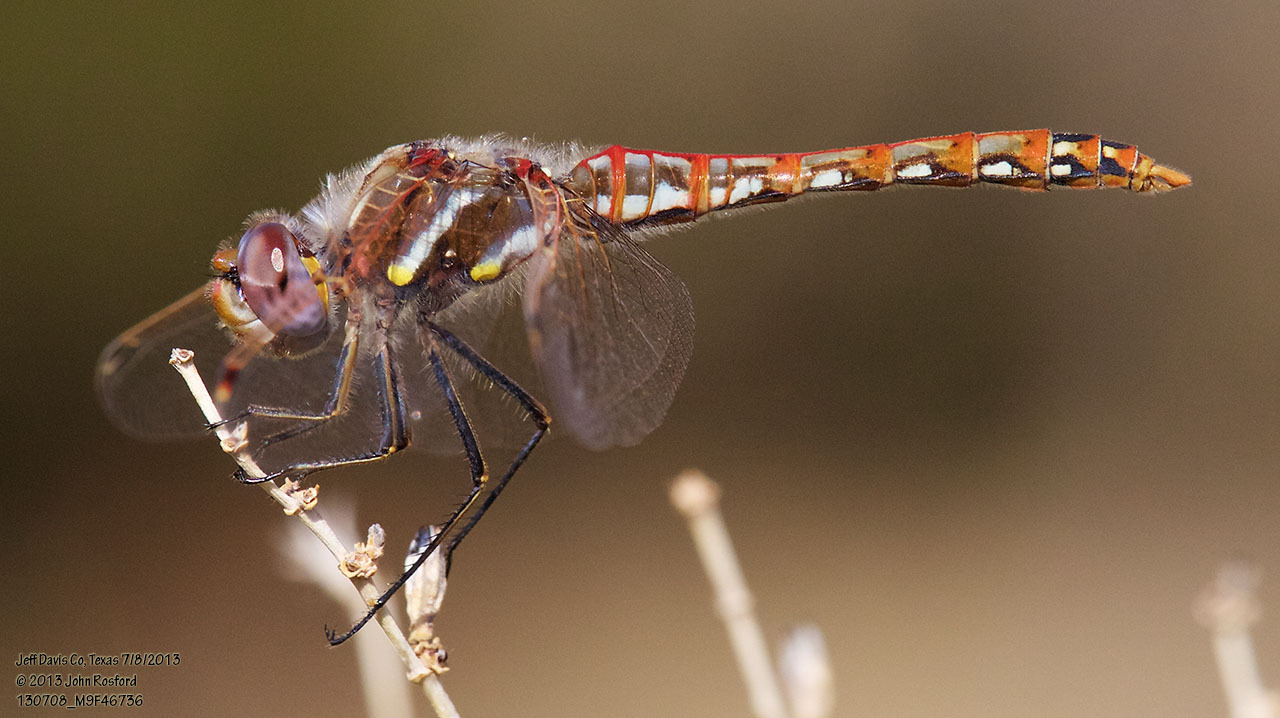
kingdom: Animalia
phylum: Arthropoda
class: Insecta
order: Odonata
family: Libellulidae
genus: Sympetrum
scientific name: Sympetrum corruptum
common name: Variegated meadowhawk
